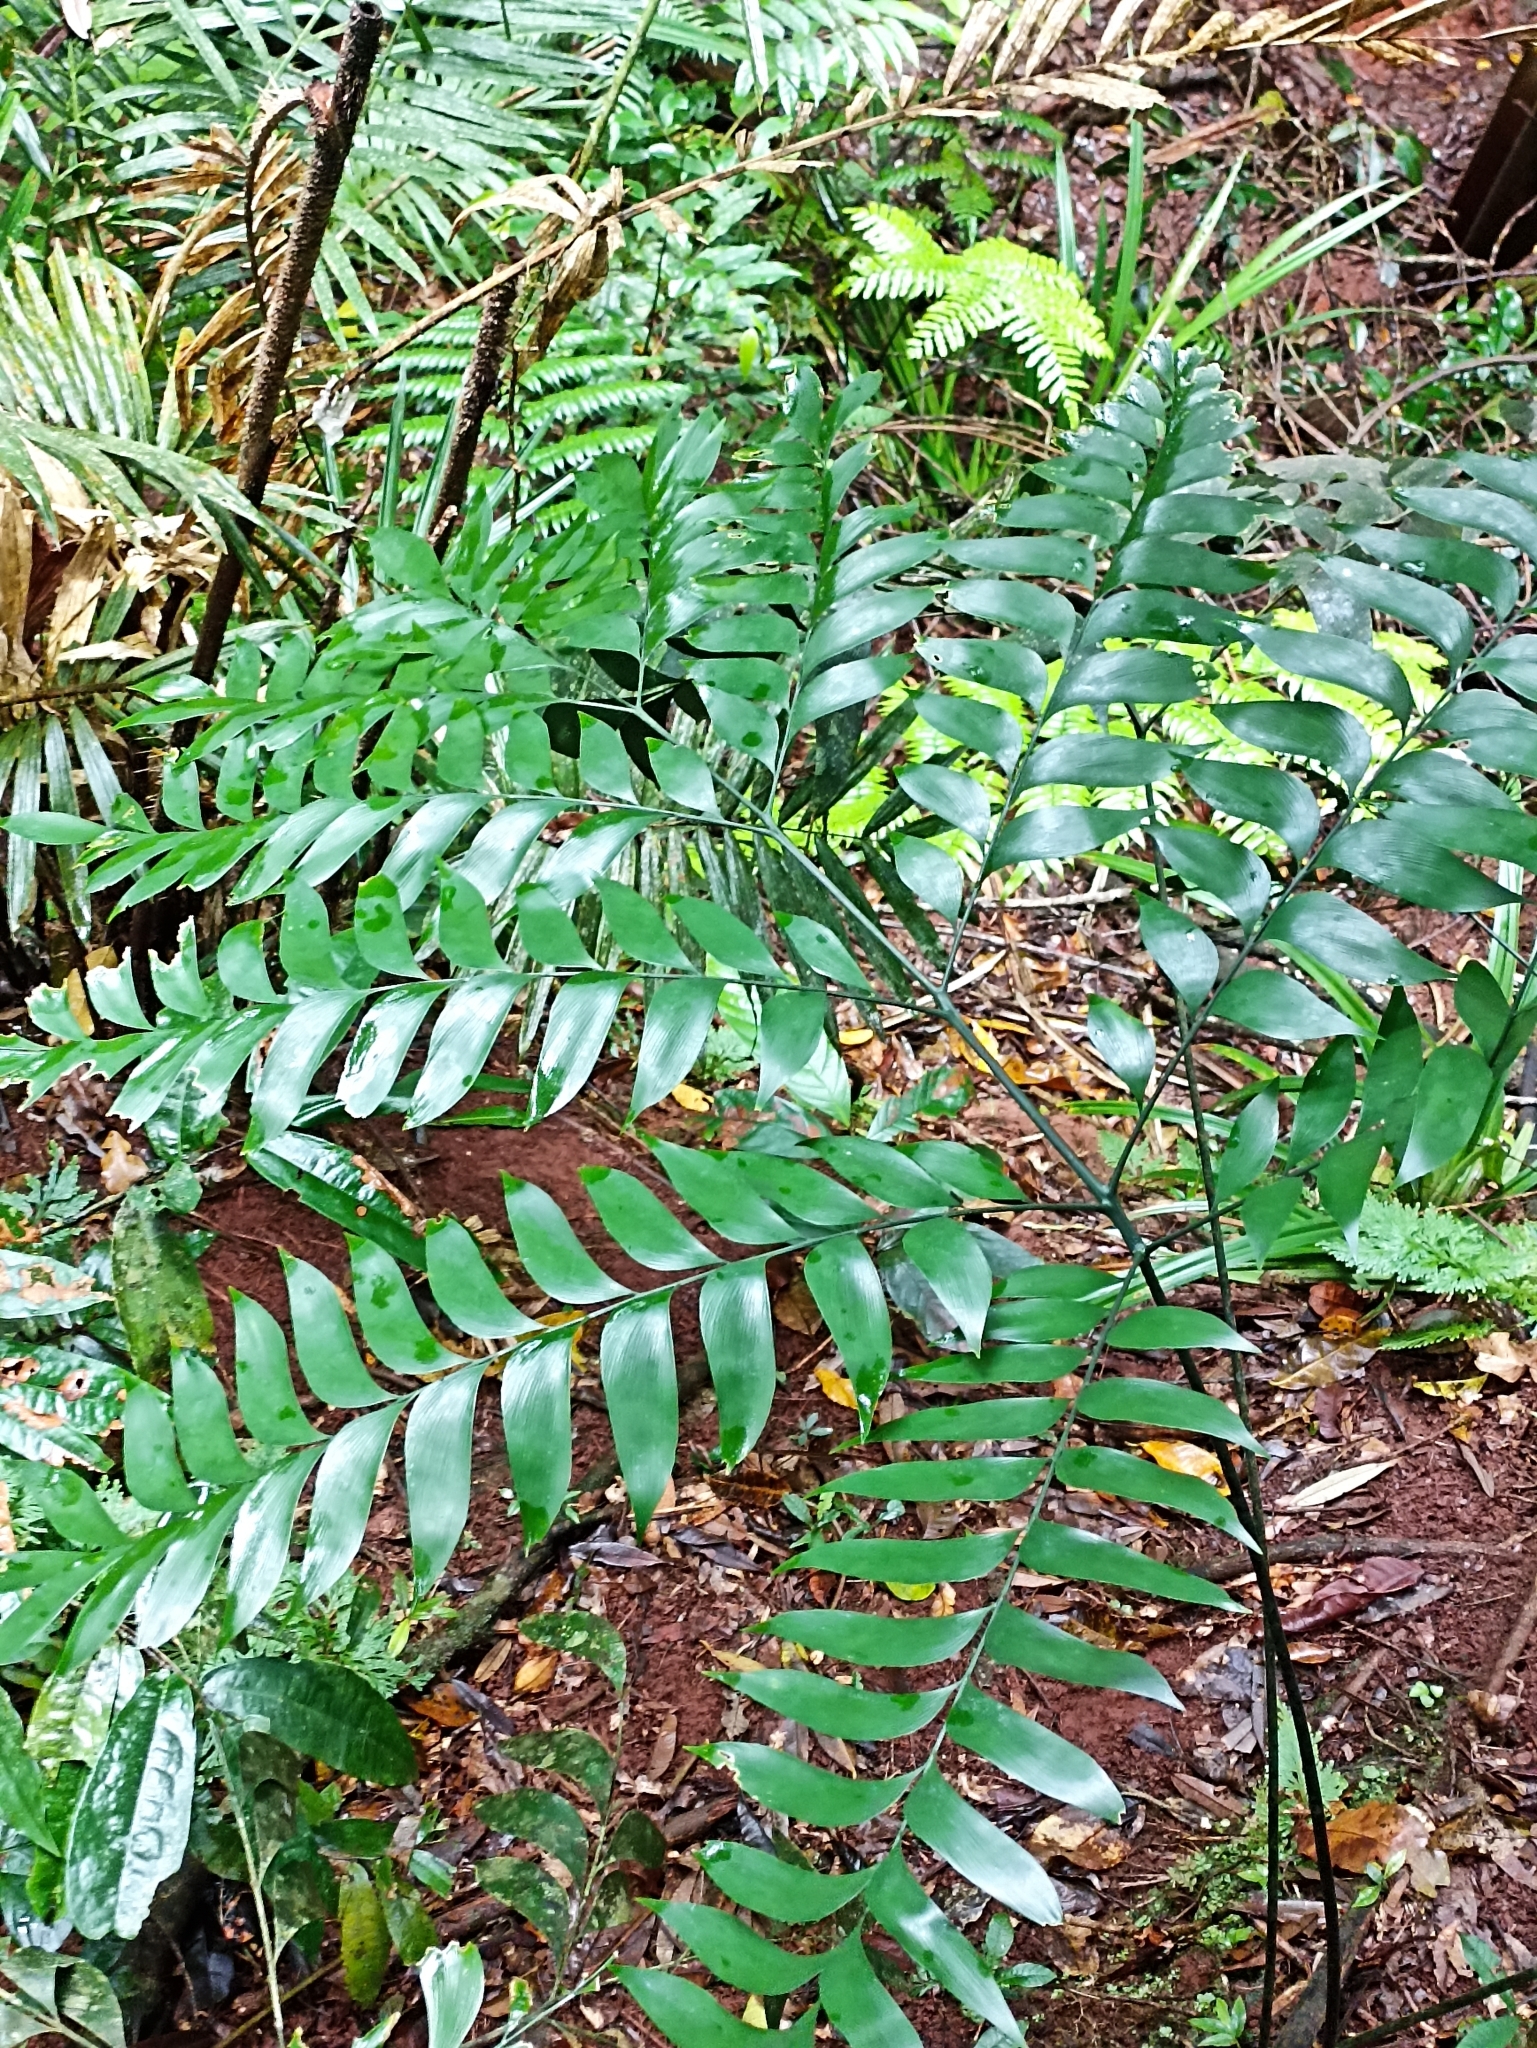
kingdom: Plantae
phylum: Tracheophyta
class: Cycadopsida
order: Cycadales
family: Zamiaceae
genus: Bowenia
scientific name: Bowenia spectabilis
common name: Zamia-fern
